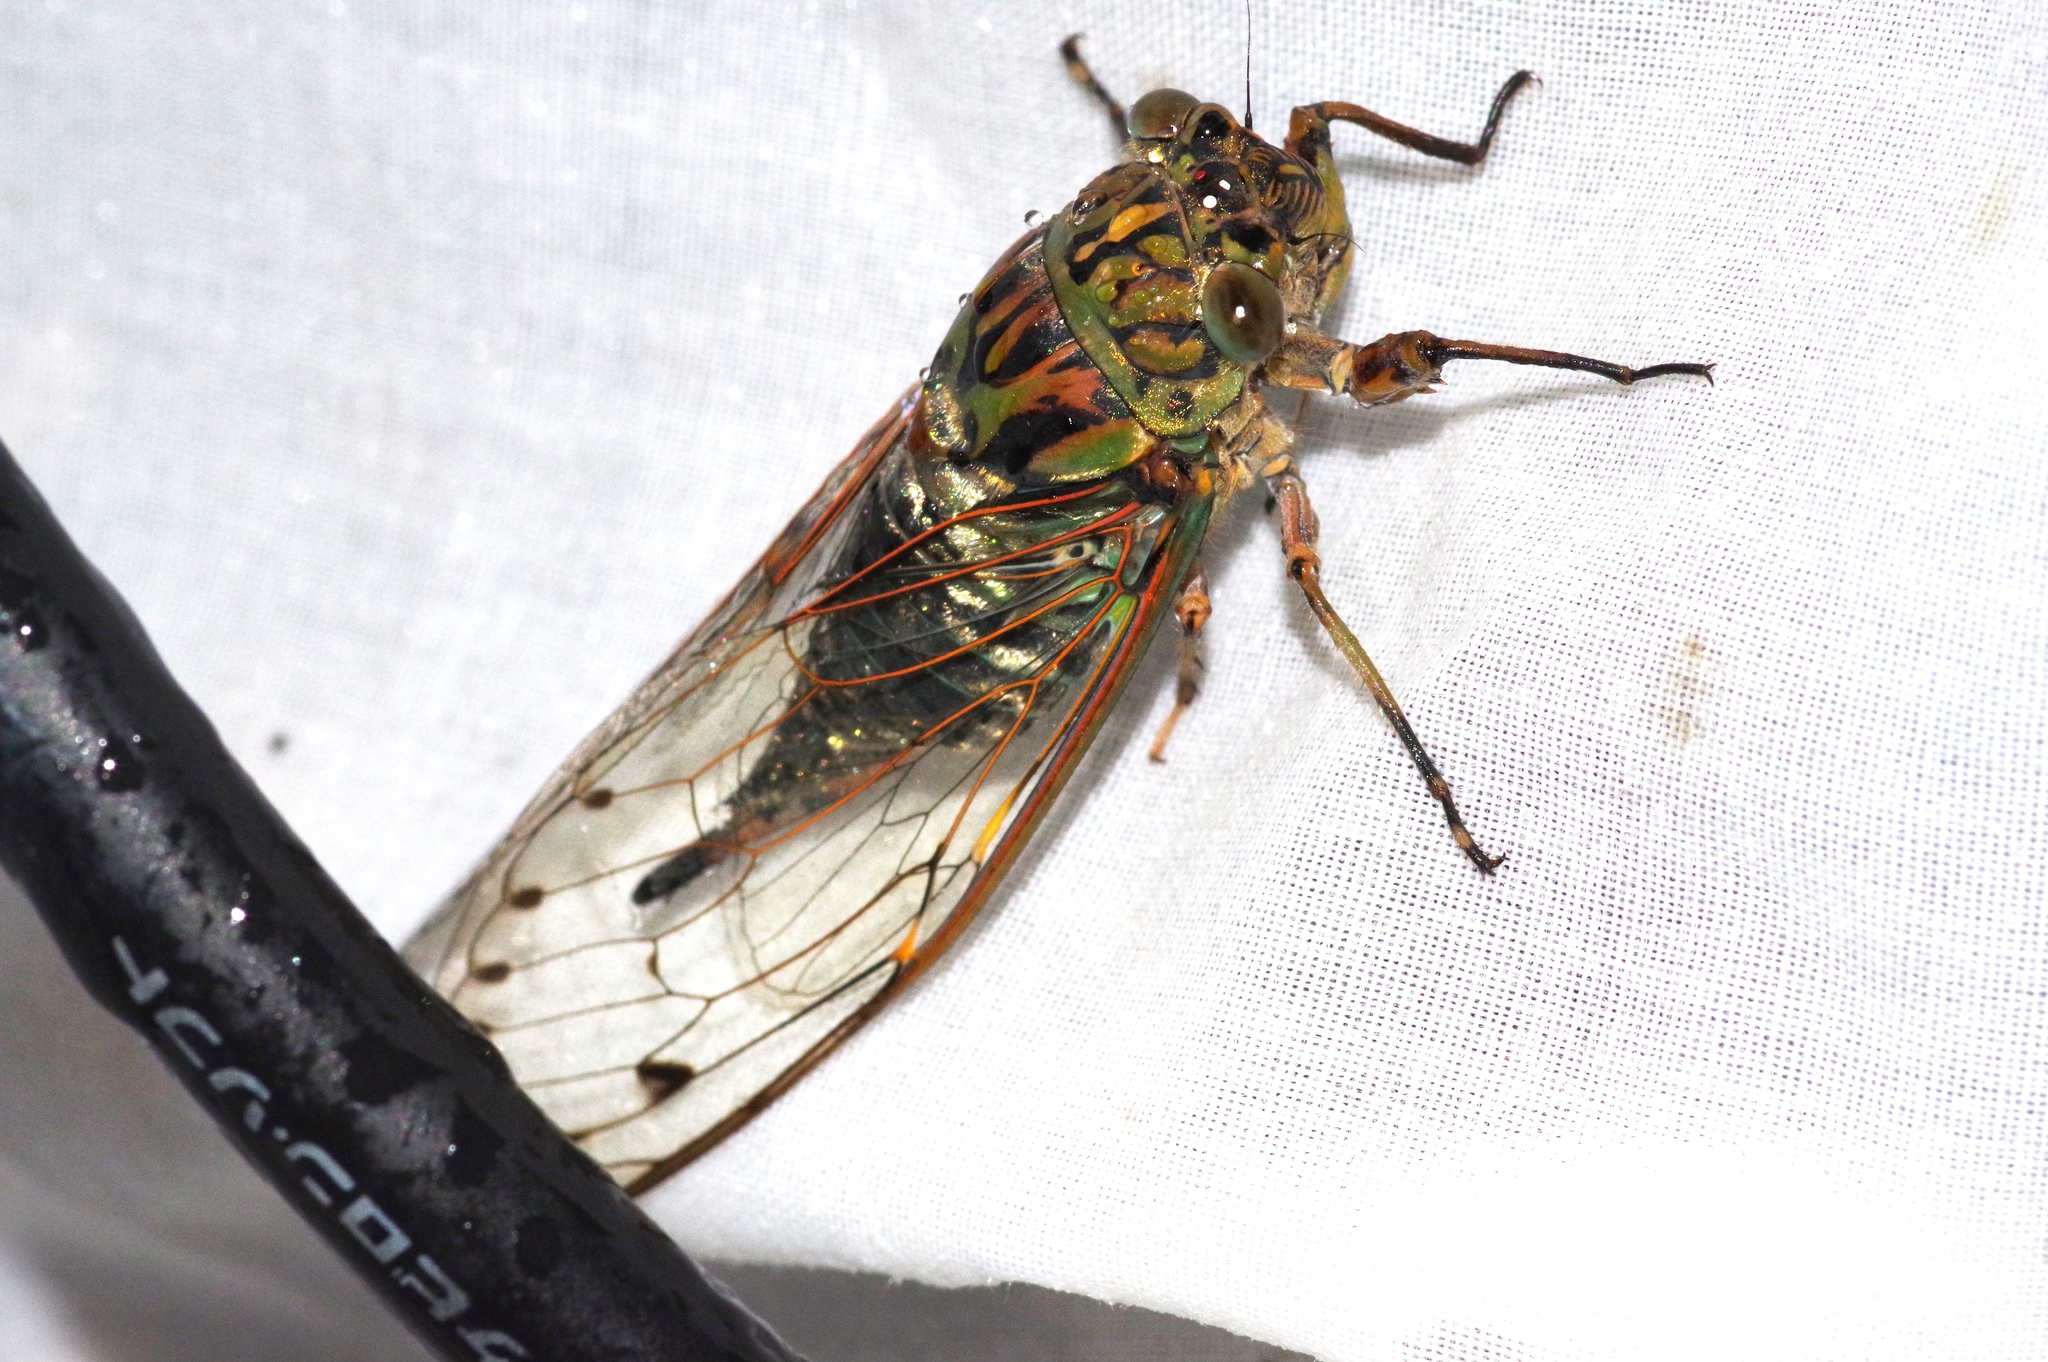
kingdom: Animalia
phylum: Arthropoda
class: Insecta
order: Hemiptera
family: Cicadidae
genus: Meimuna
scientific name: Meimuna oshimensis
